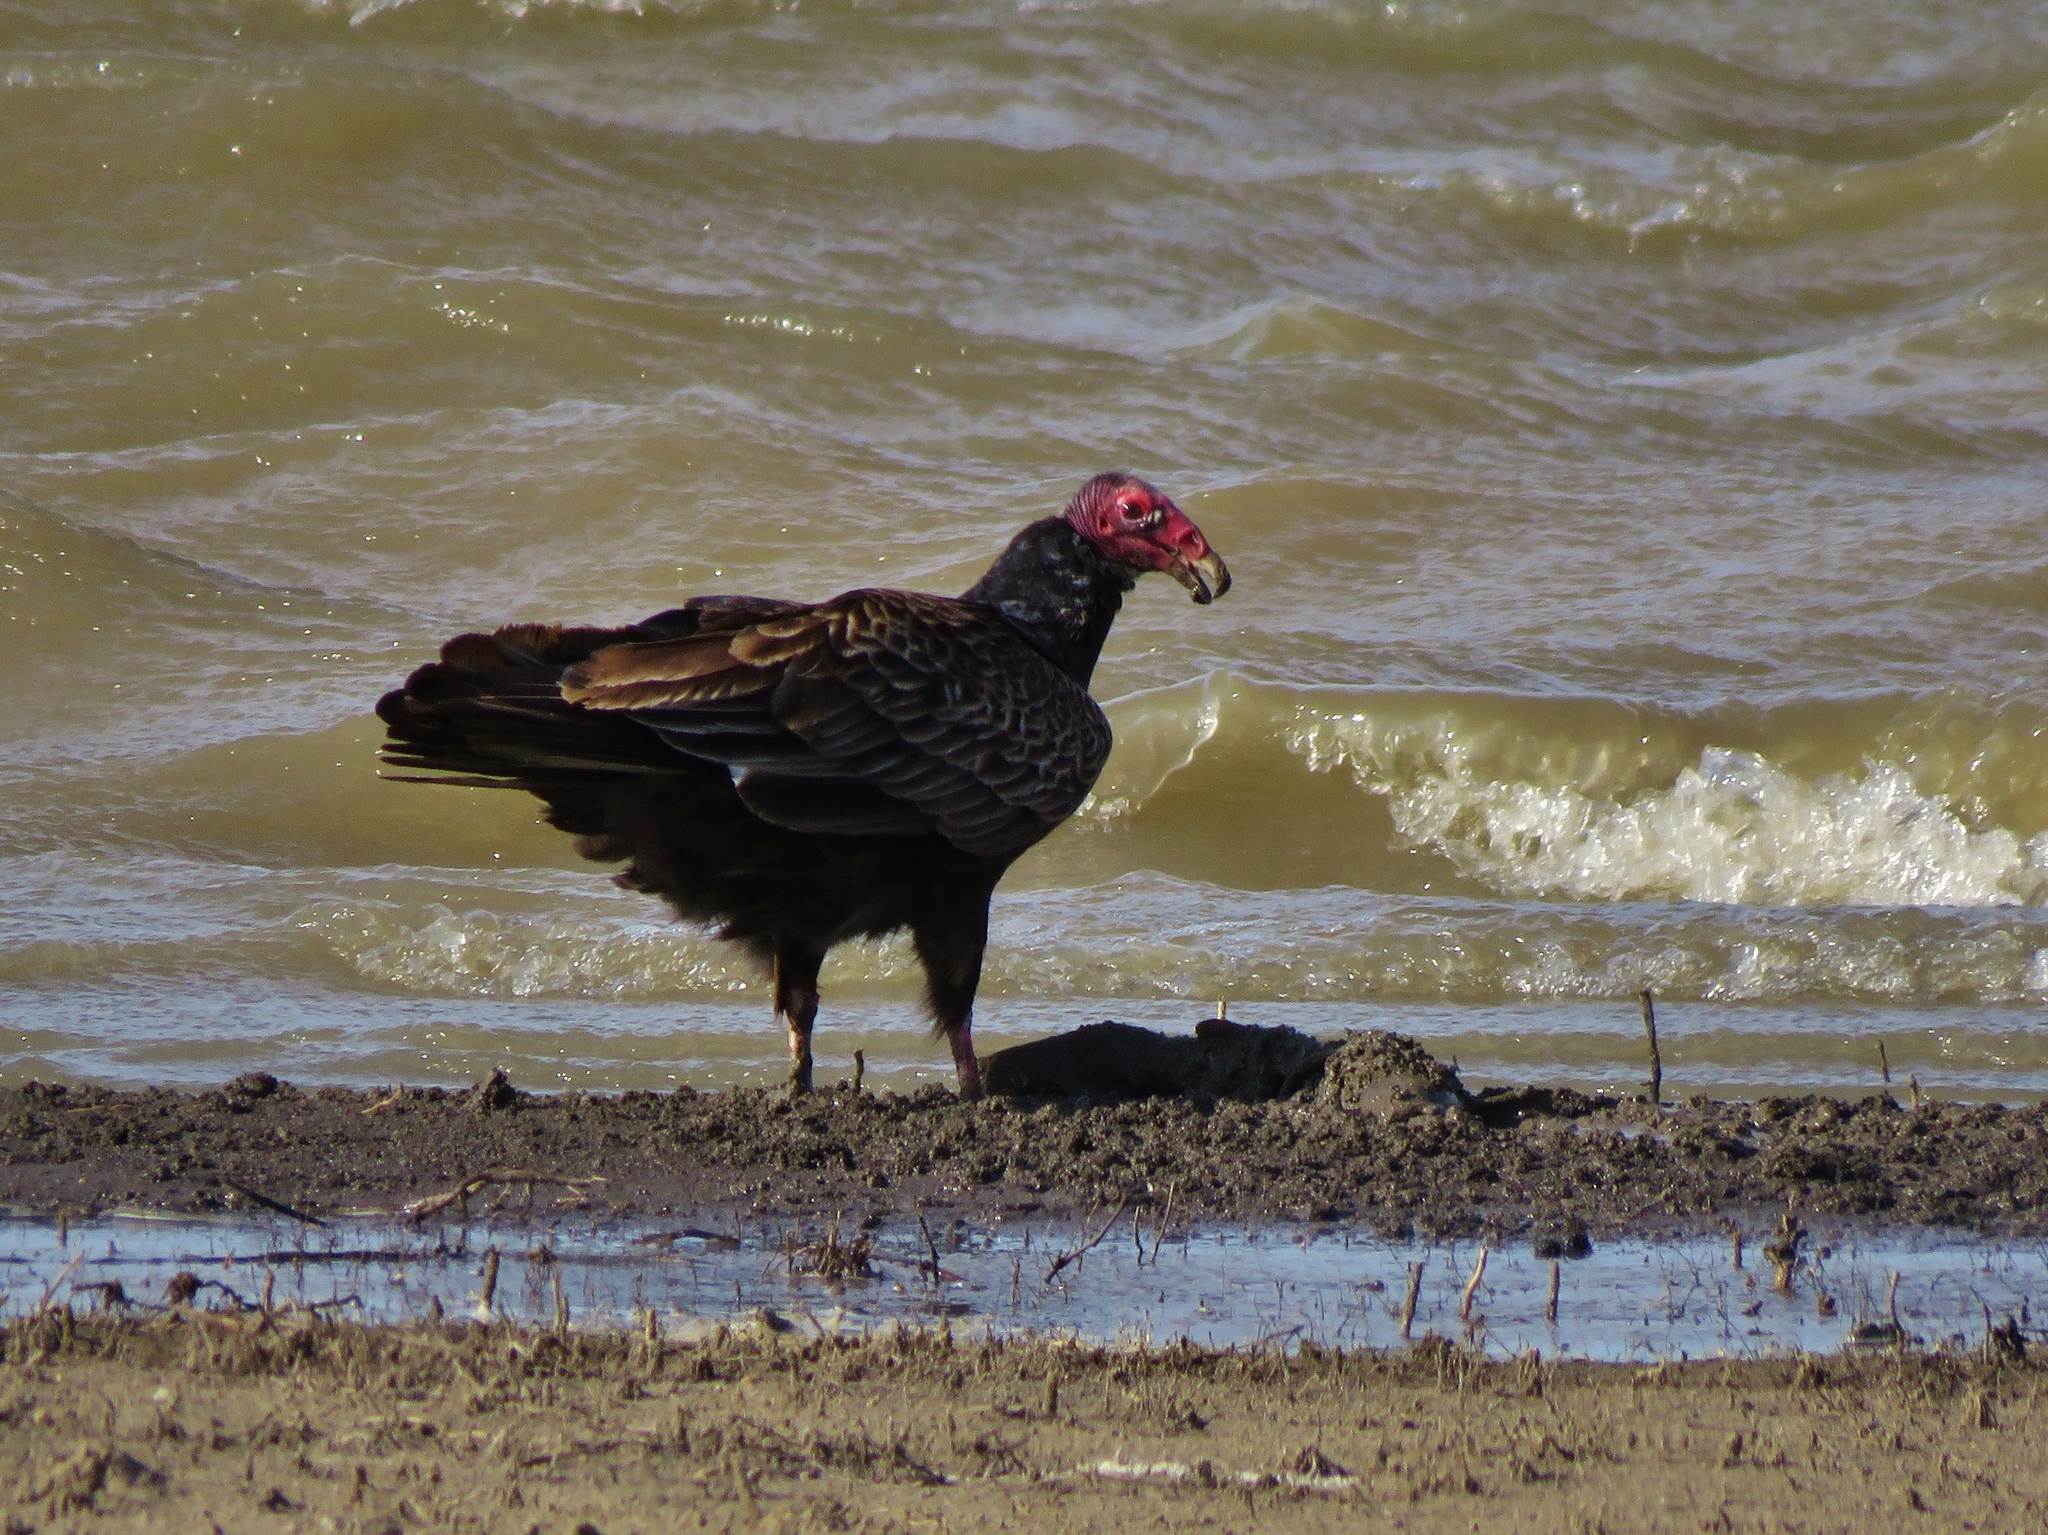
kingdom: Animalia
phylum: Chordata
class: Aves
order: Accipitriformes
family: Cathartidae
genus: Cathartes
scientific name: Cathartes aura
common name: Turkey vulture
